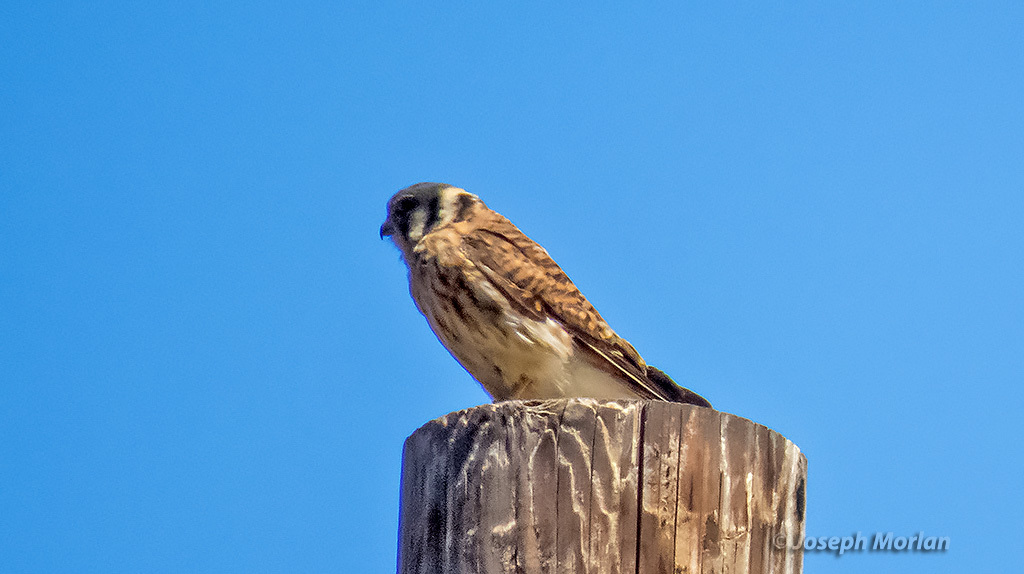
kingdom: Animalia
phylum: Chordata
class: Aves
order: Falconiformes
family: Falconidae
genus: Falco
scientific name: Falco sparverius
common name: American kestrel
